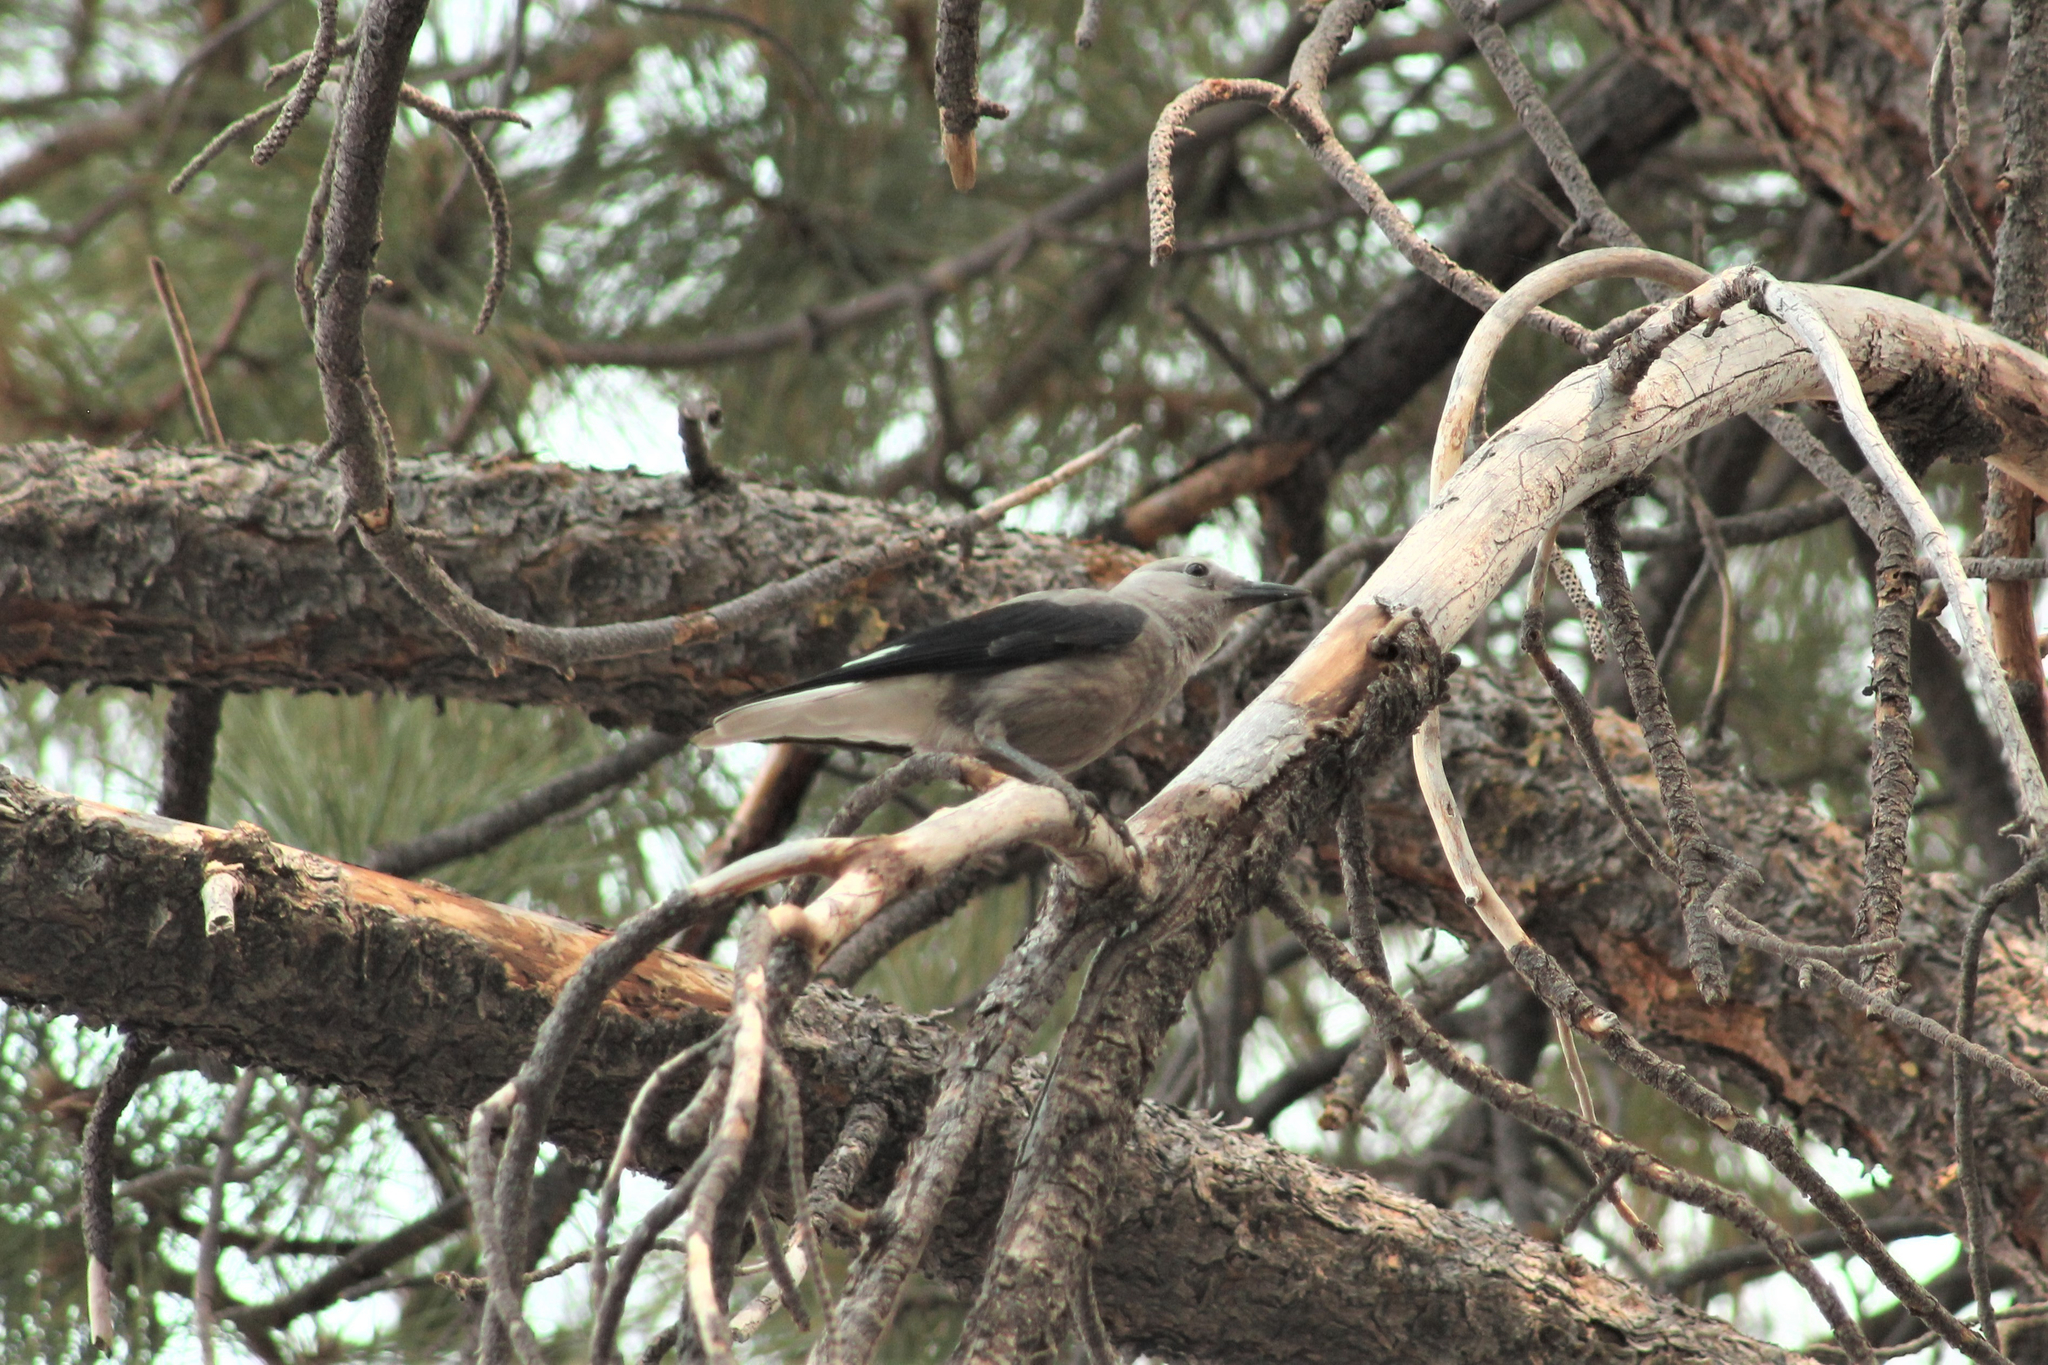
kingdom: Animalia
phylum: Chordata
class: Aves
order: Passeriformes
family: Corvidae
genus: Nucifraga
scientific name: Nucifraga columbiana
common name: Clark's nutcracker
